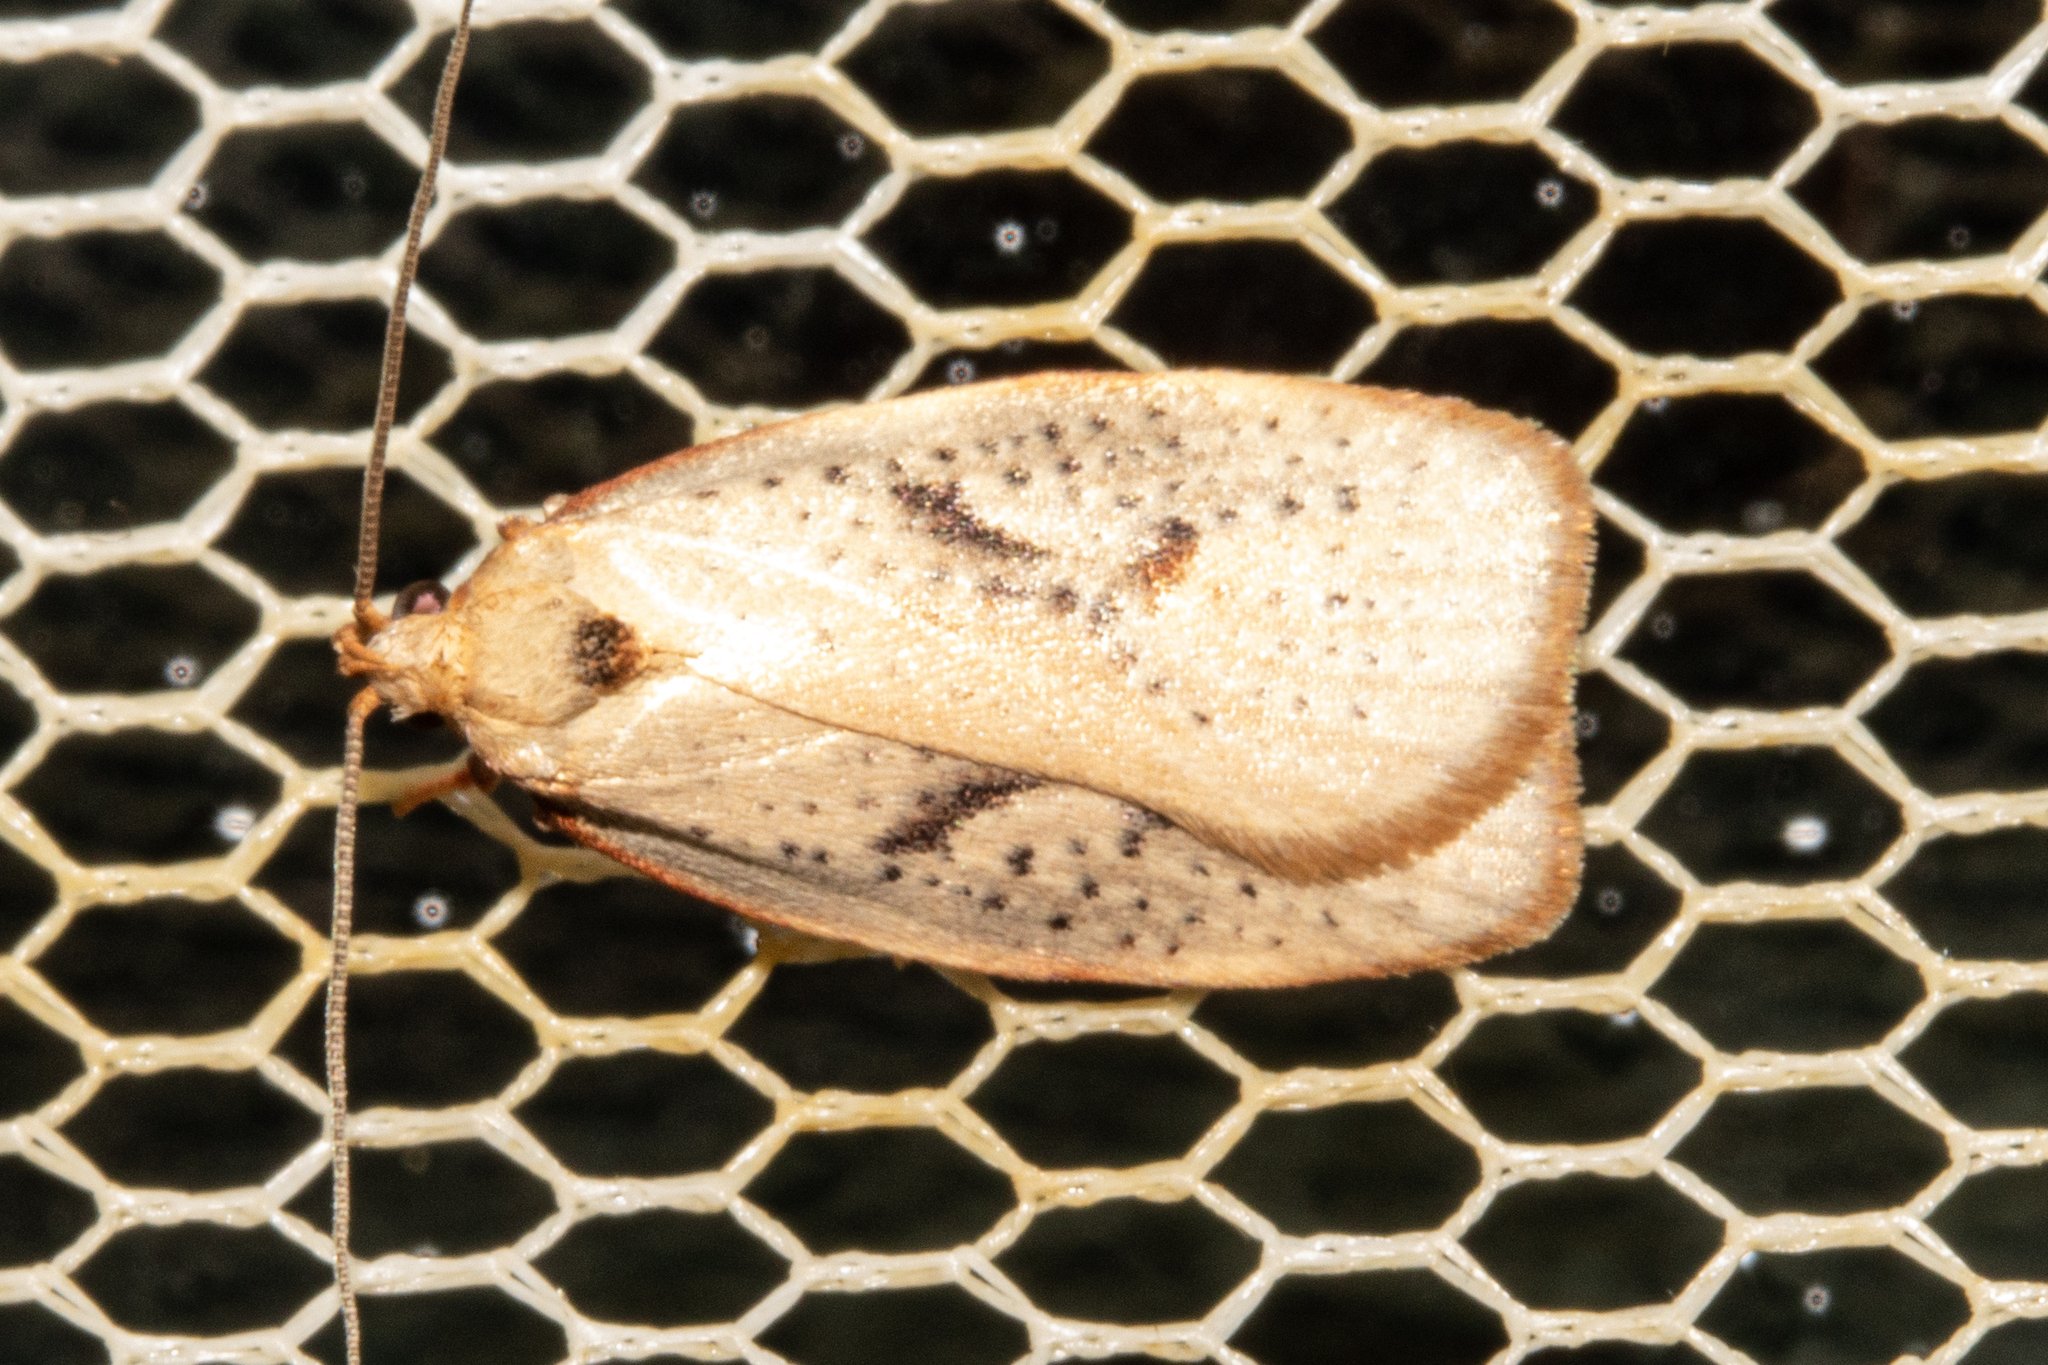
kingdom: Animalia
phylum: Arthropoda
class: Insecta
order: Lepidoptera
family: Oecophoridae
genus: Proteodes
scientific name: Proteodes carnifex
